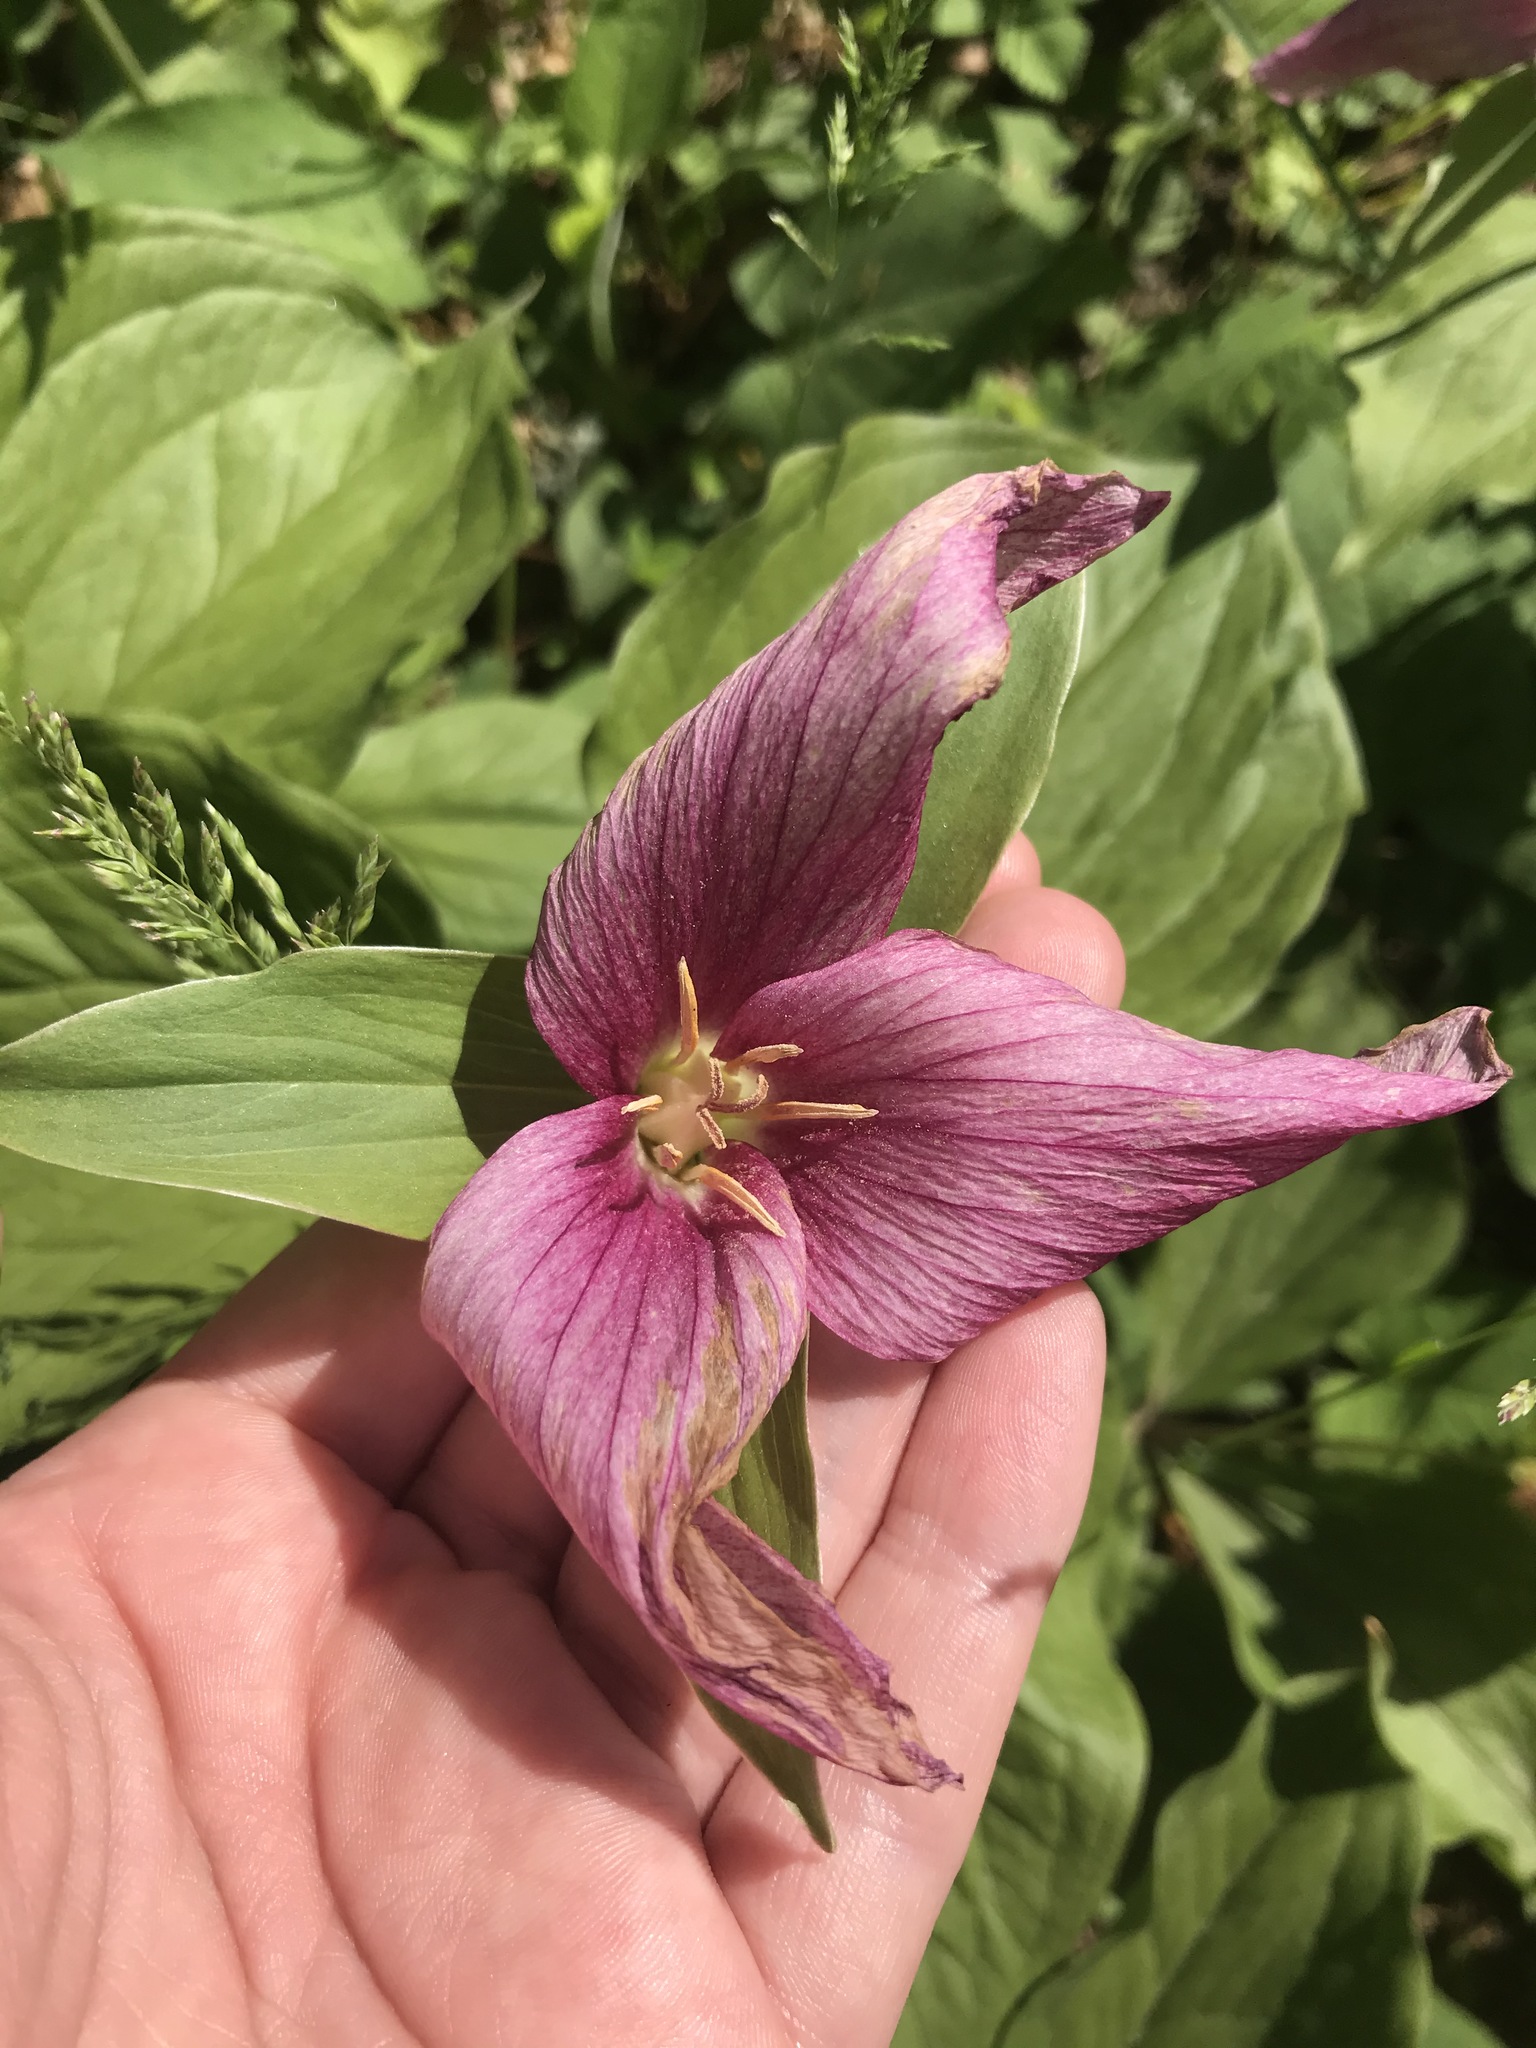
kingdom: Plantae
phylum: Tracheophyta
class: Liliopsida
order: Liliales
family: Melanthiaceae
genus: Trillium
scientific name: Trillium grandiflorum
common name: Great white trillium
